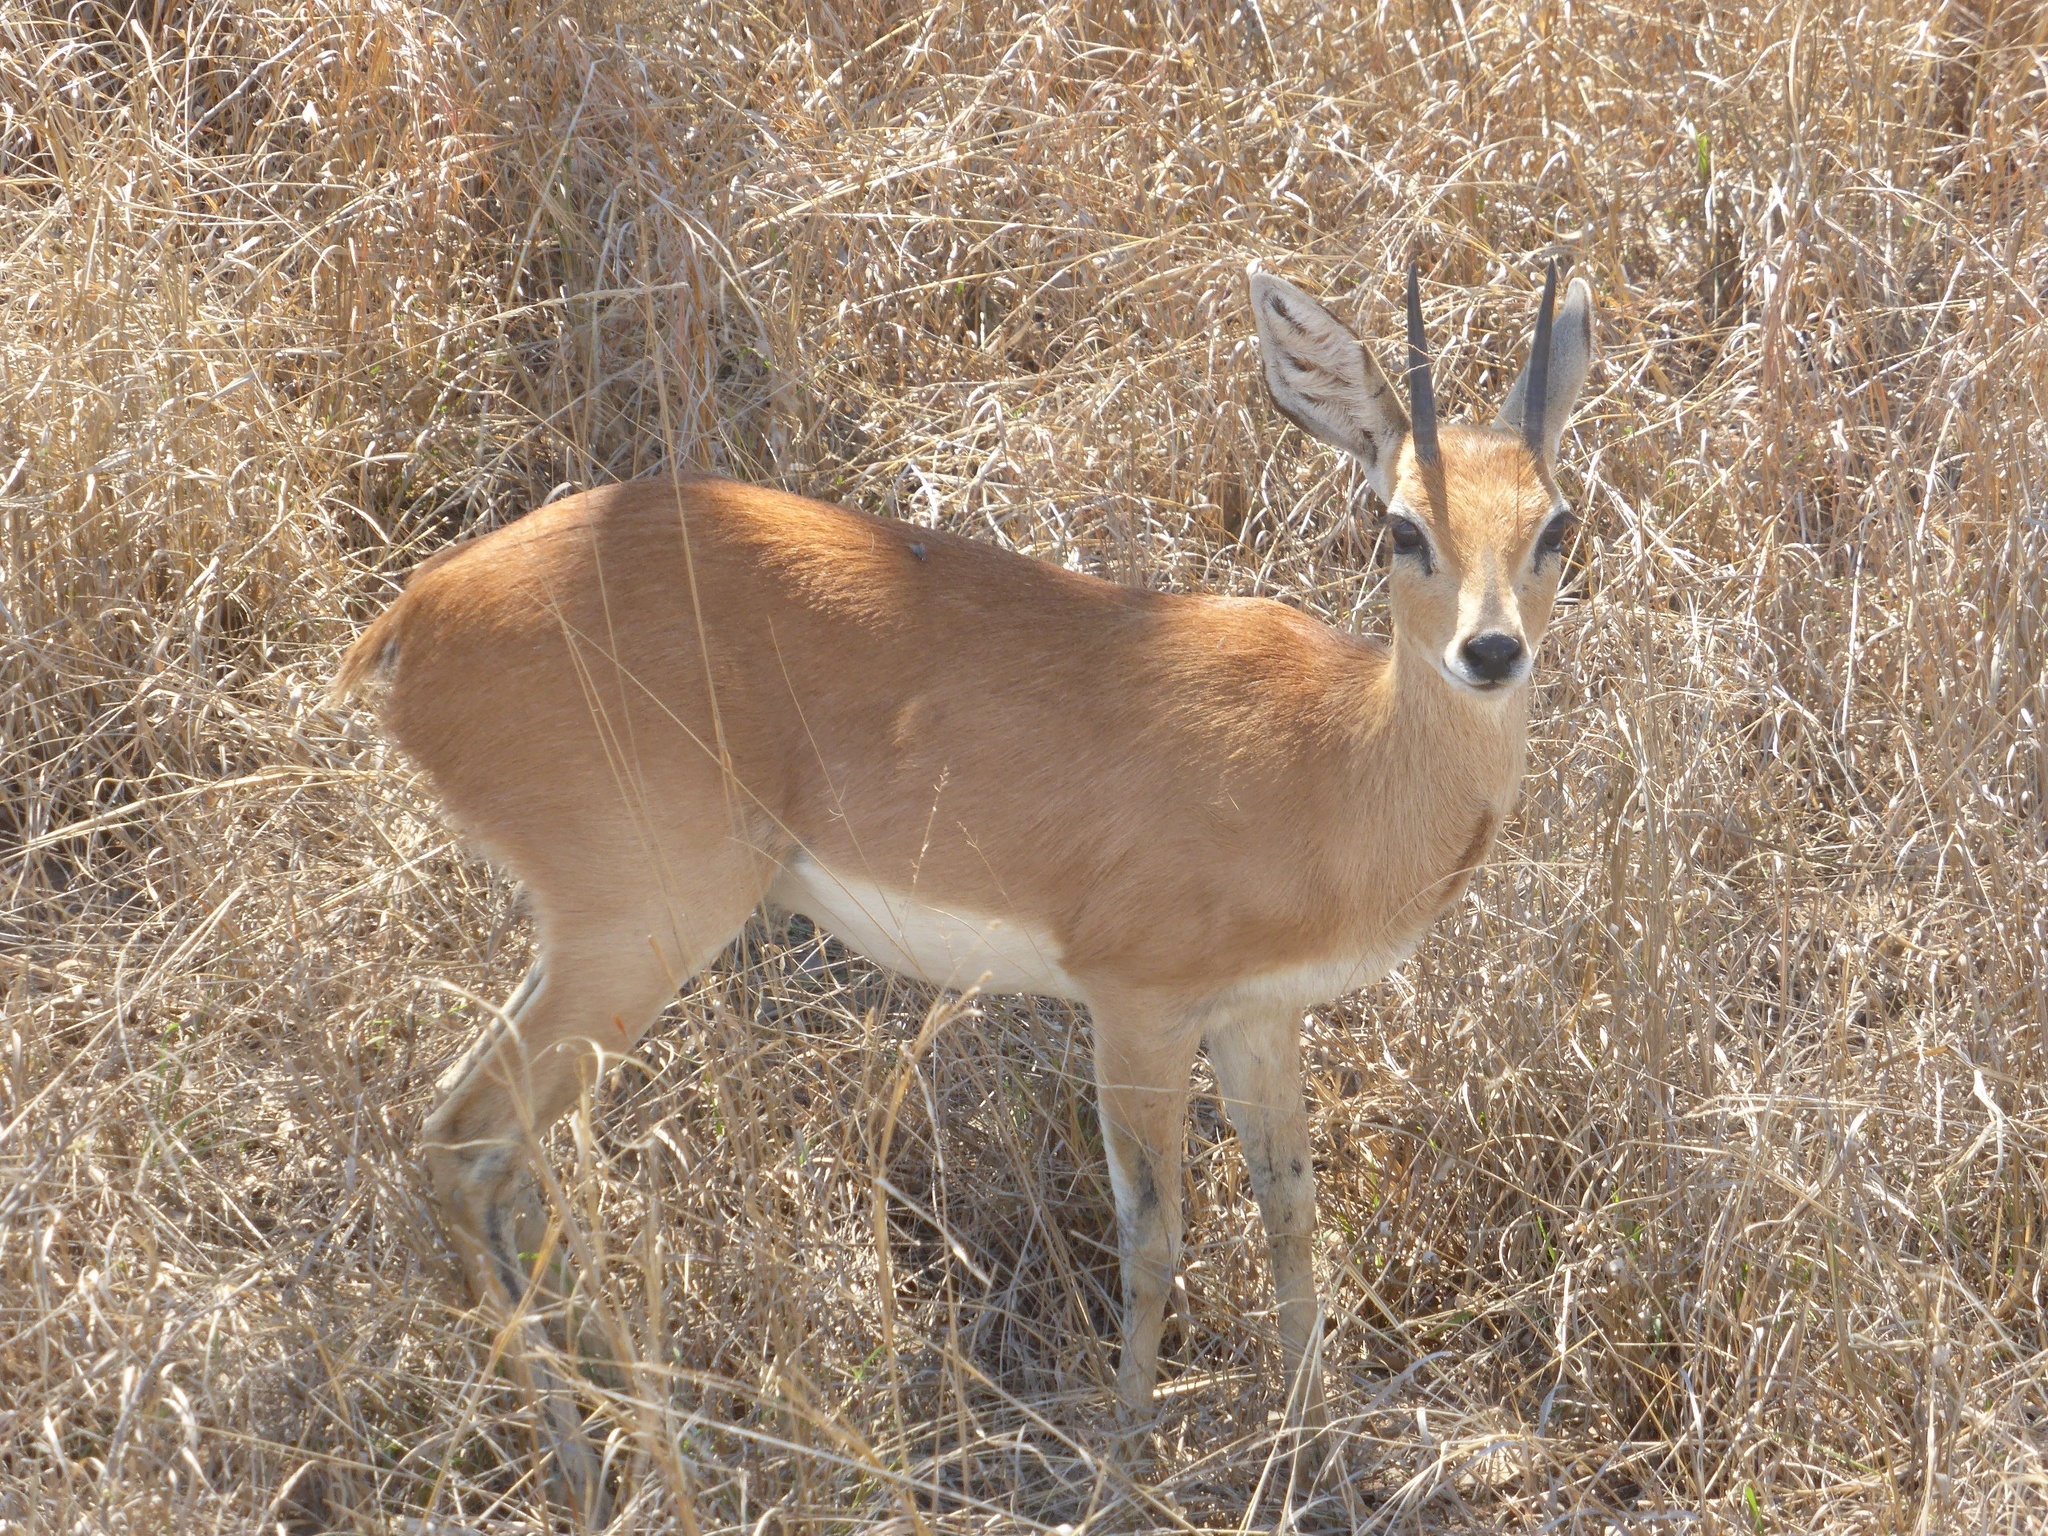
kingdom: Animalia
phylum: Chordata
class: Mammalia
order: Artiodactyla
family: Bovidae
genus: Raphicerus
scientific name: Raphicerus campestris
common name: Steenbok
